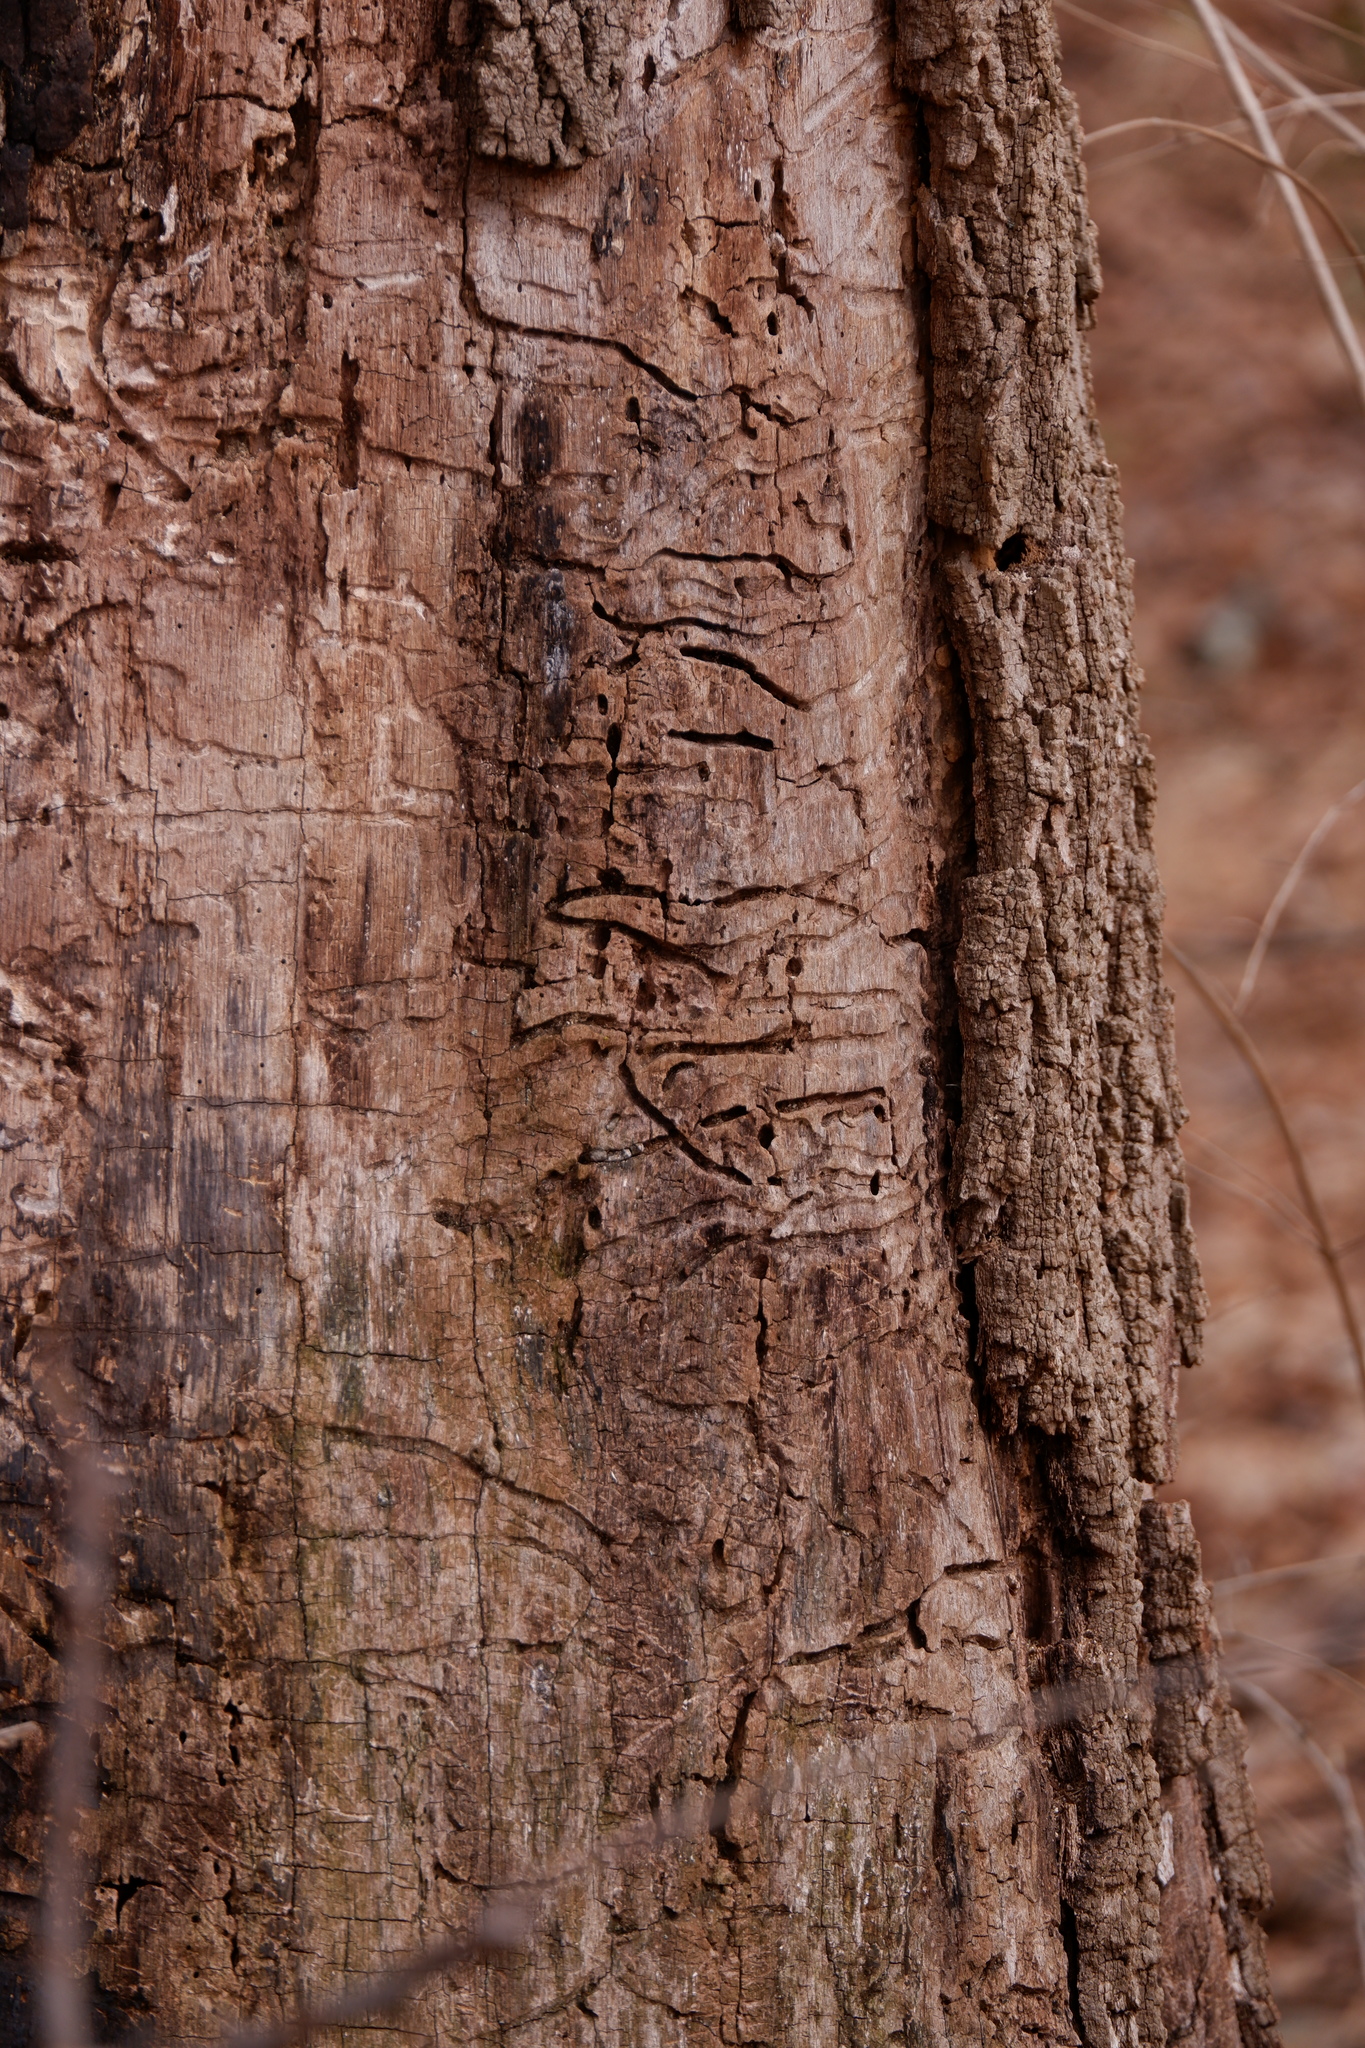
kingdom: Animalia
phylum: Arthropoda
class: Insecta
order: Coleoptera
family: Buprestidae
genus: Agrilus
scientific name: Agrilus planipennis
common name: Emerald ash borer
